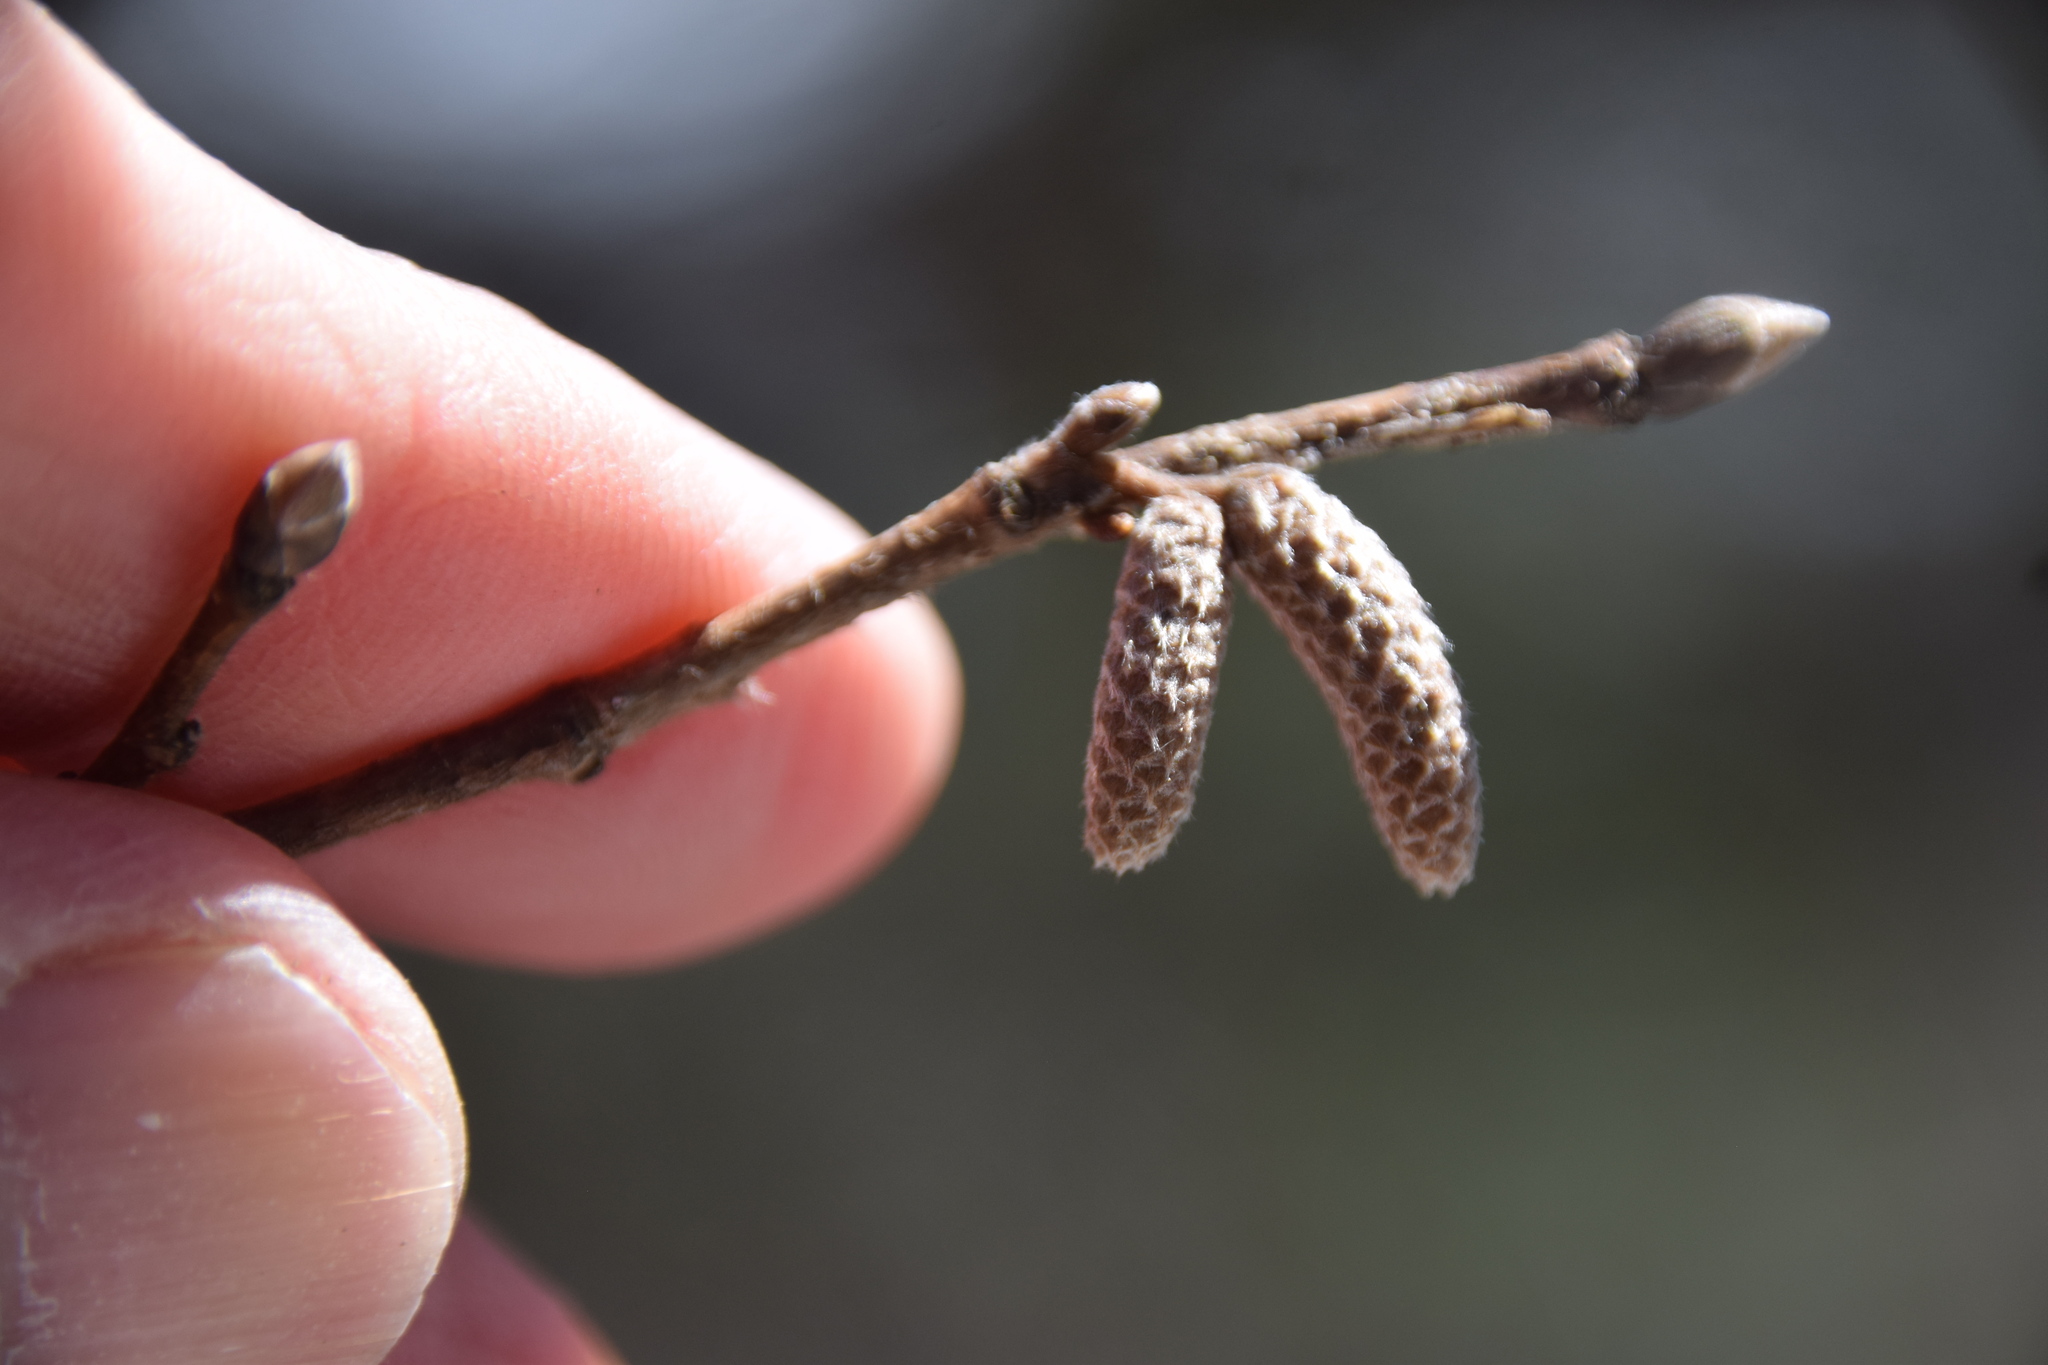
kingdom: Plantae
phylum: Tracheophyta
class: Magnoliopsida
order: Fagales
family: Betulaceae
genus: Corylus
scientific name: Corylus cornuta
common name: Beaked hazel
